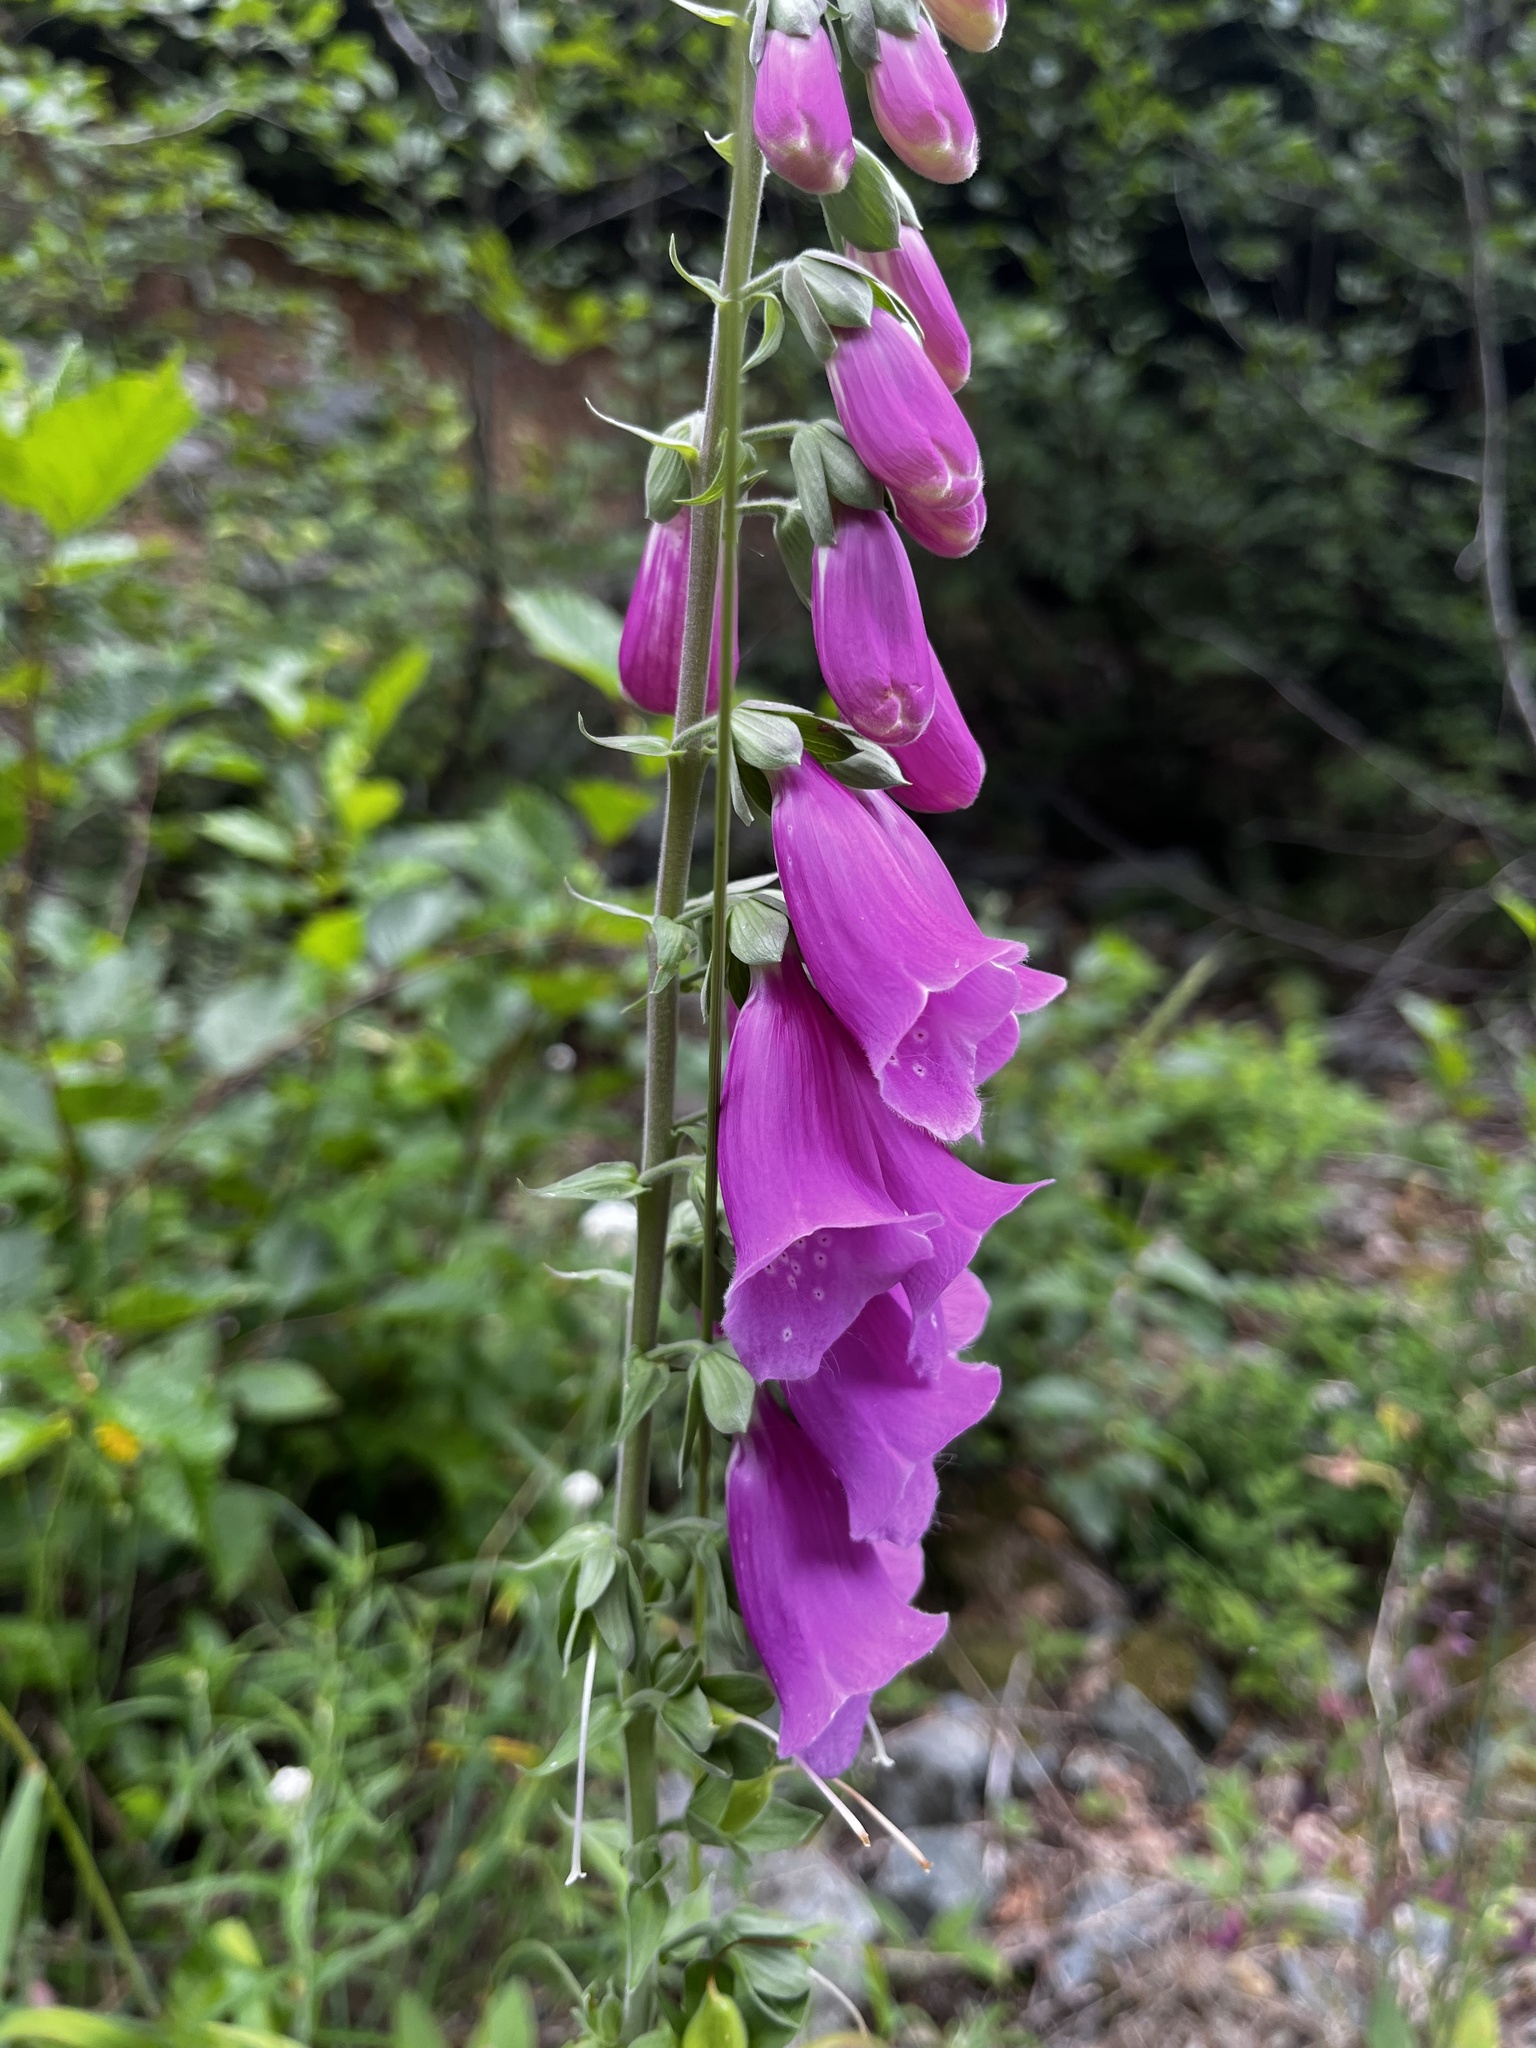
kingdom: Plantae
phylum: Tracheophyta
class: Magnoliopsida
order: Lamiales
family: Plantaginaceae
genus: Digitalis
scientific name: Digitalis purpurea
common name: Foxglove
